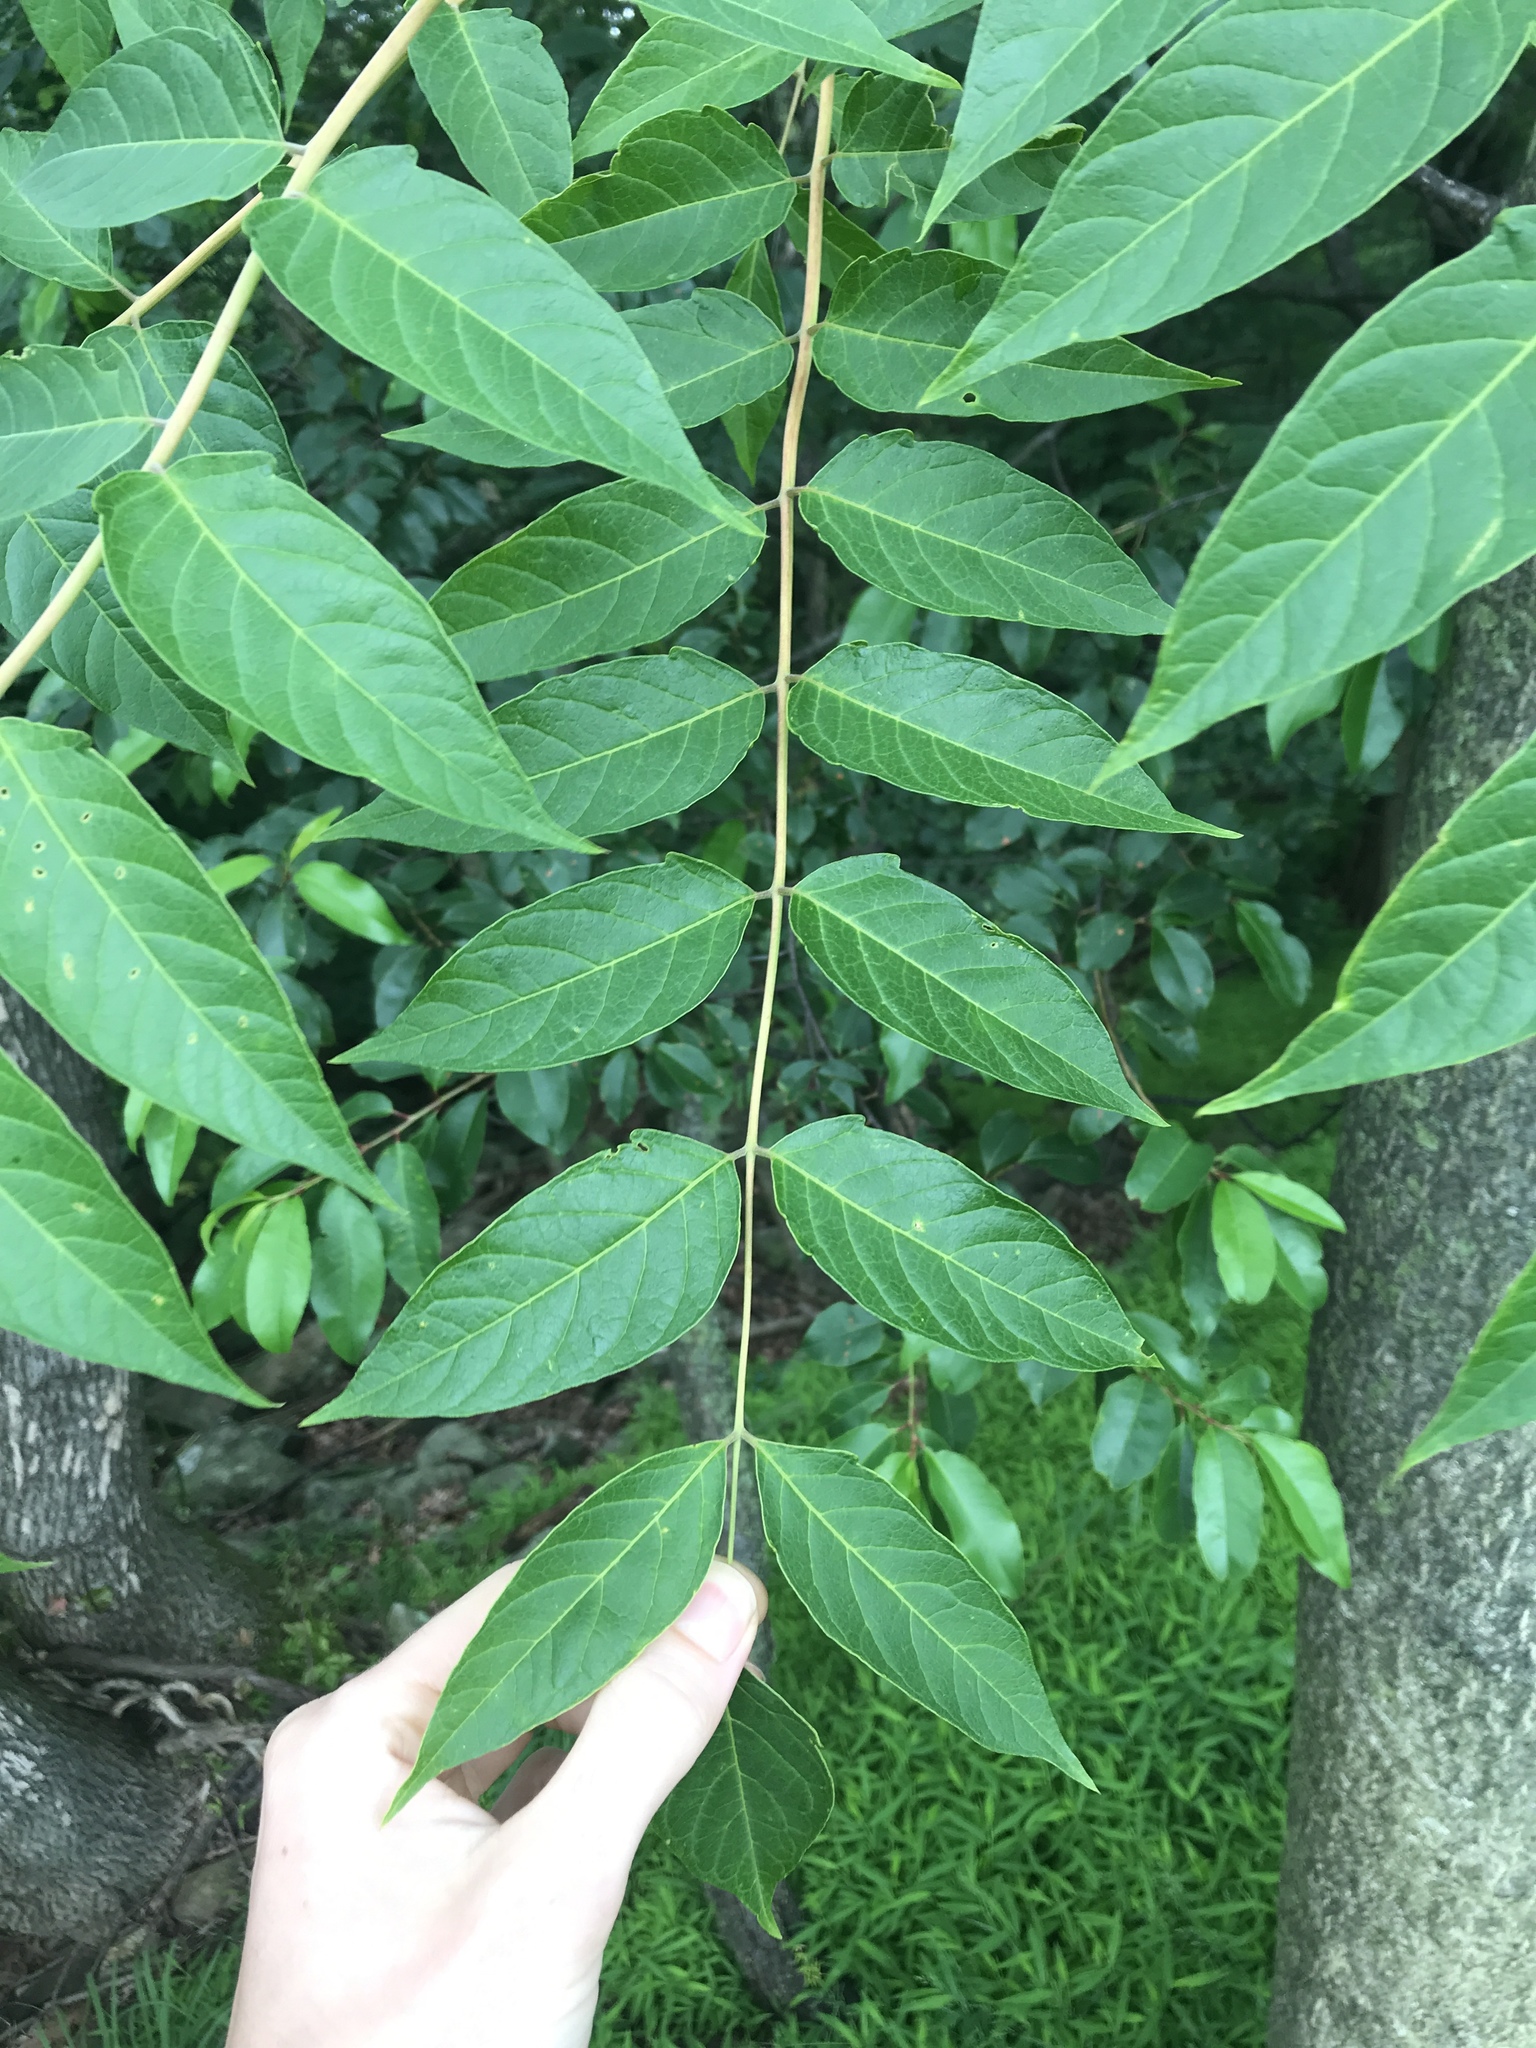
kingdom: Plantae
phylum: Tracheophyta
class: Magnoliopsida
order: Sapindales
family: Simaroubaceae
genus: Ailanthus
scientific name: Ailanthus altissima
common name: Tree-of-heaven
